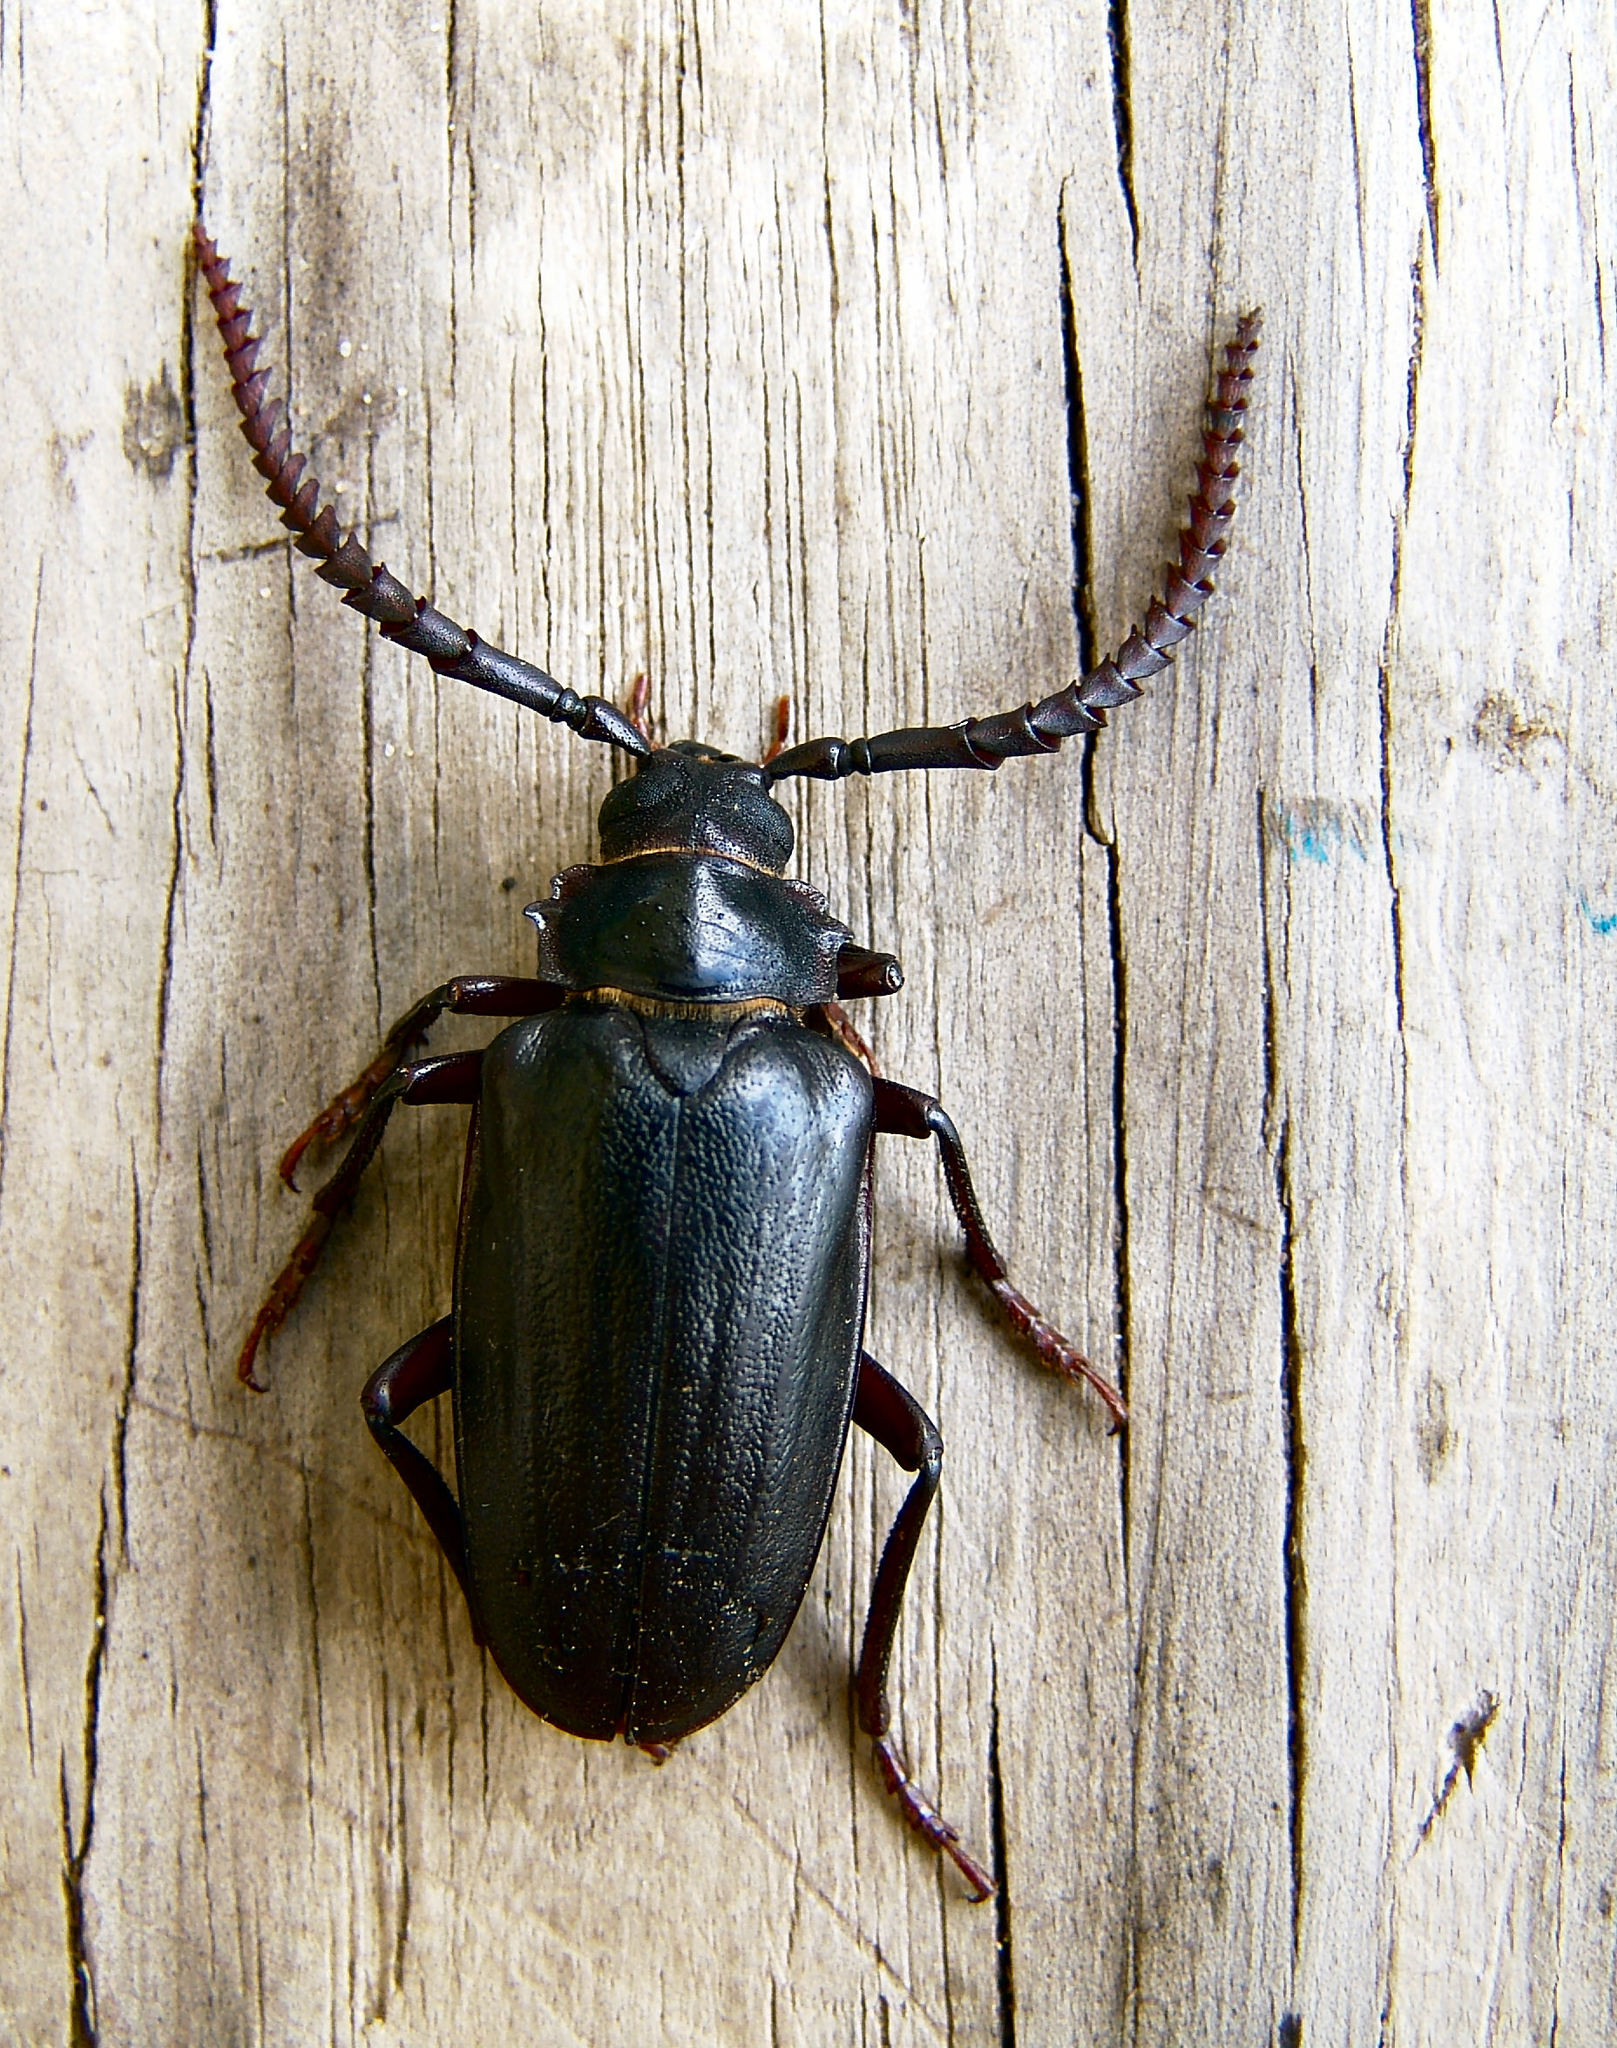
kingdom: Animalia
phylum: Arthropoda
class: Insecta
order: Coleoptera
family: Cerambycidae
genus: Prionus
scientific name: Prionus imbricornis
